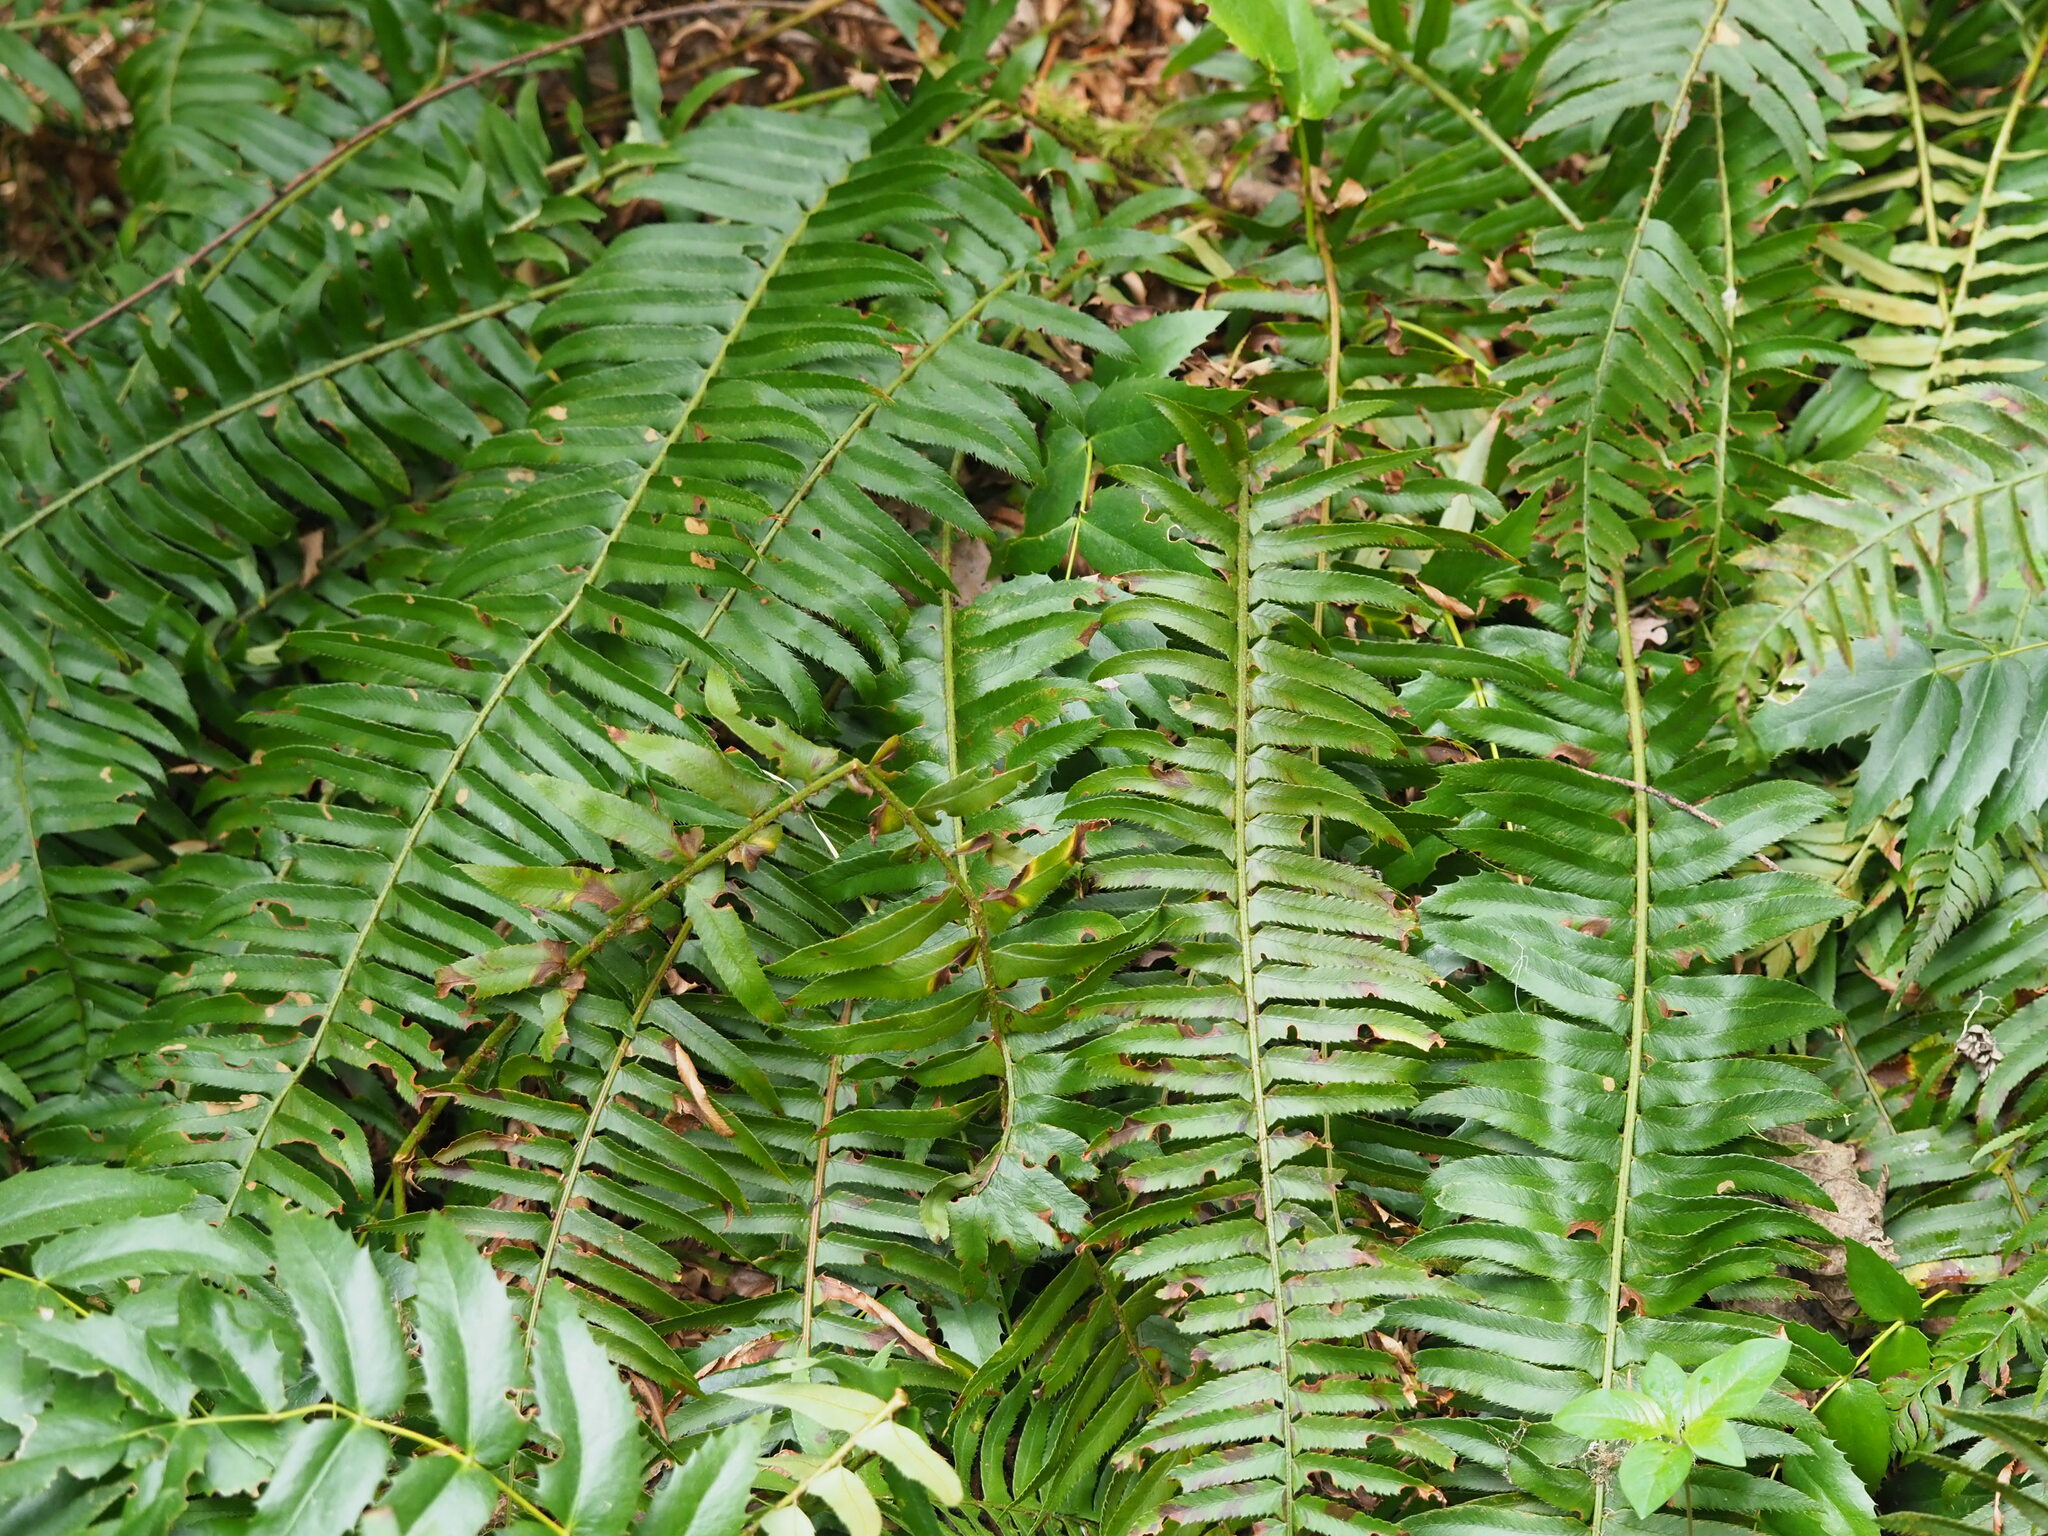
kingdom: Plantae
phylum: Tracheophyta
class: Polypodiopsida
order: Polypodiales
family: Dryopteridaceae
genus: Polystichum
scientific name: Polystichum munitum
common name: Western sword-fern
